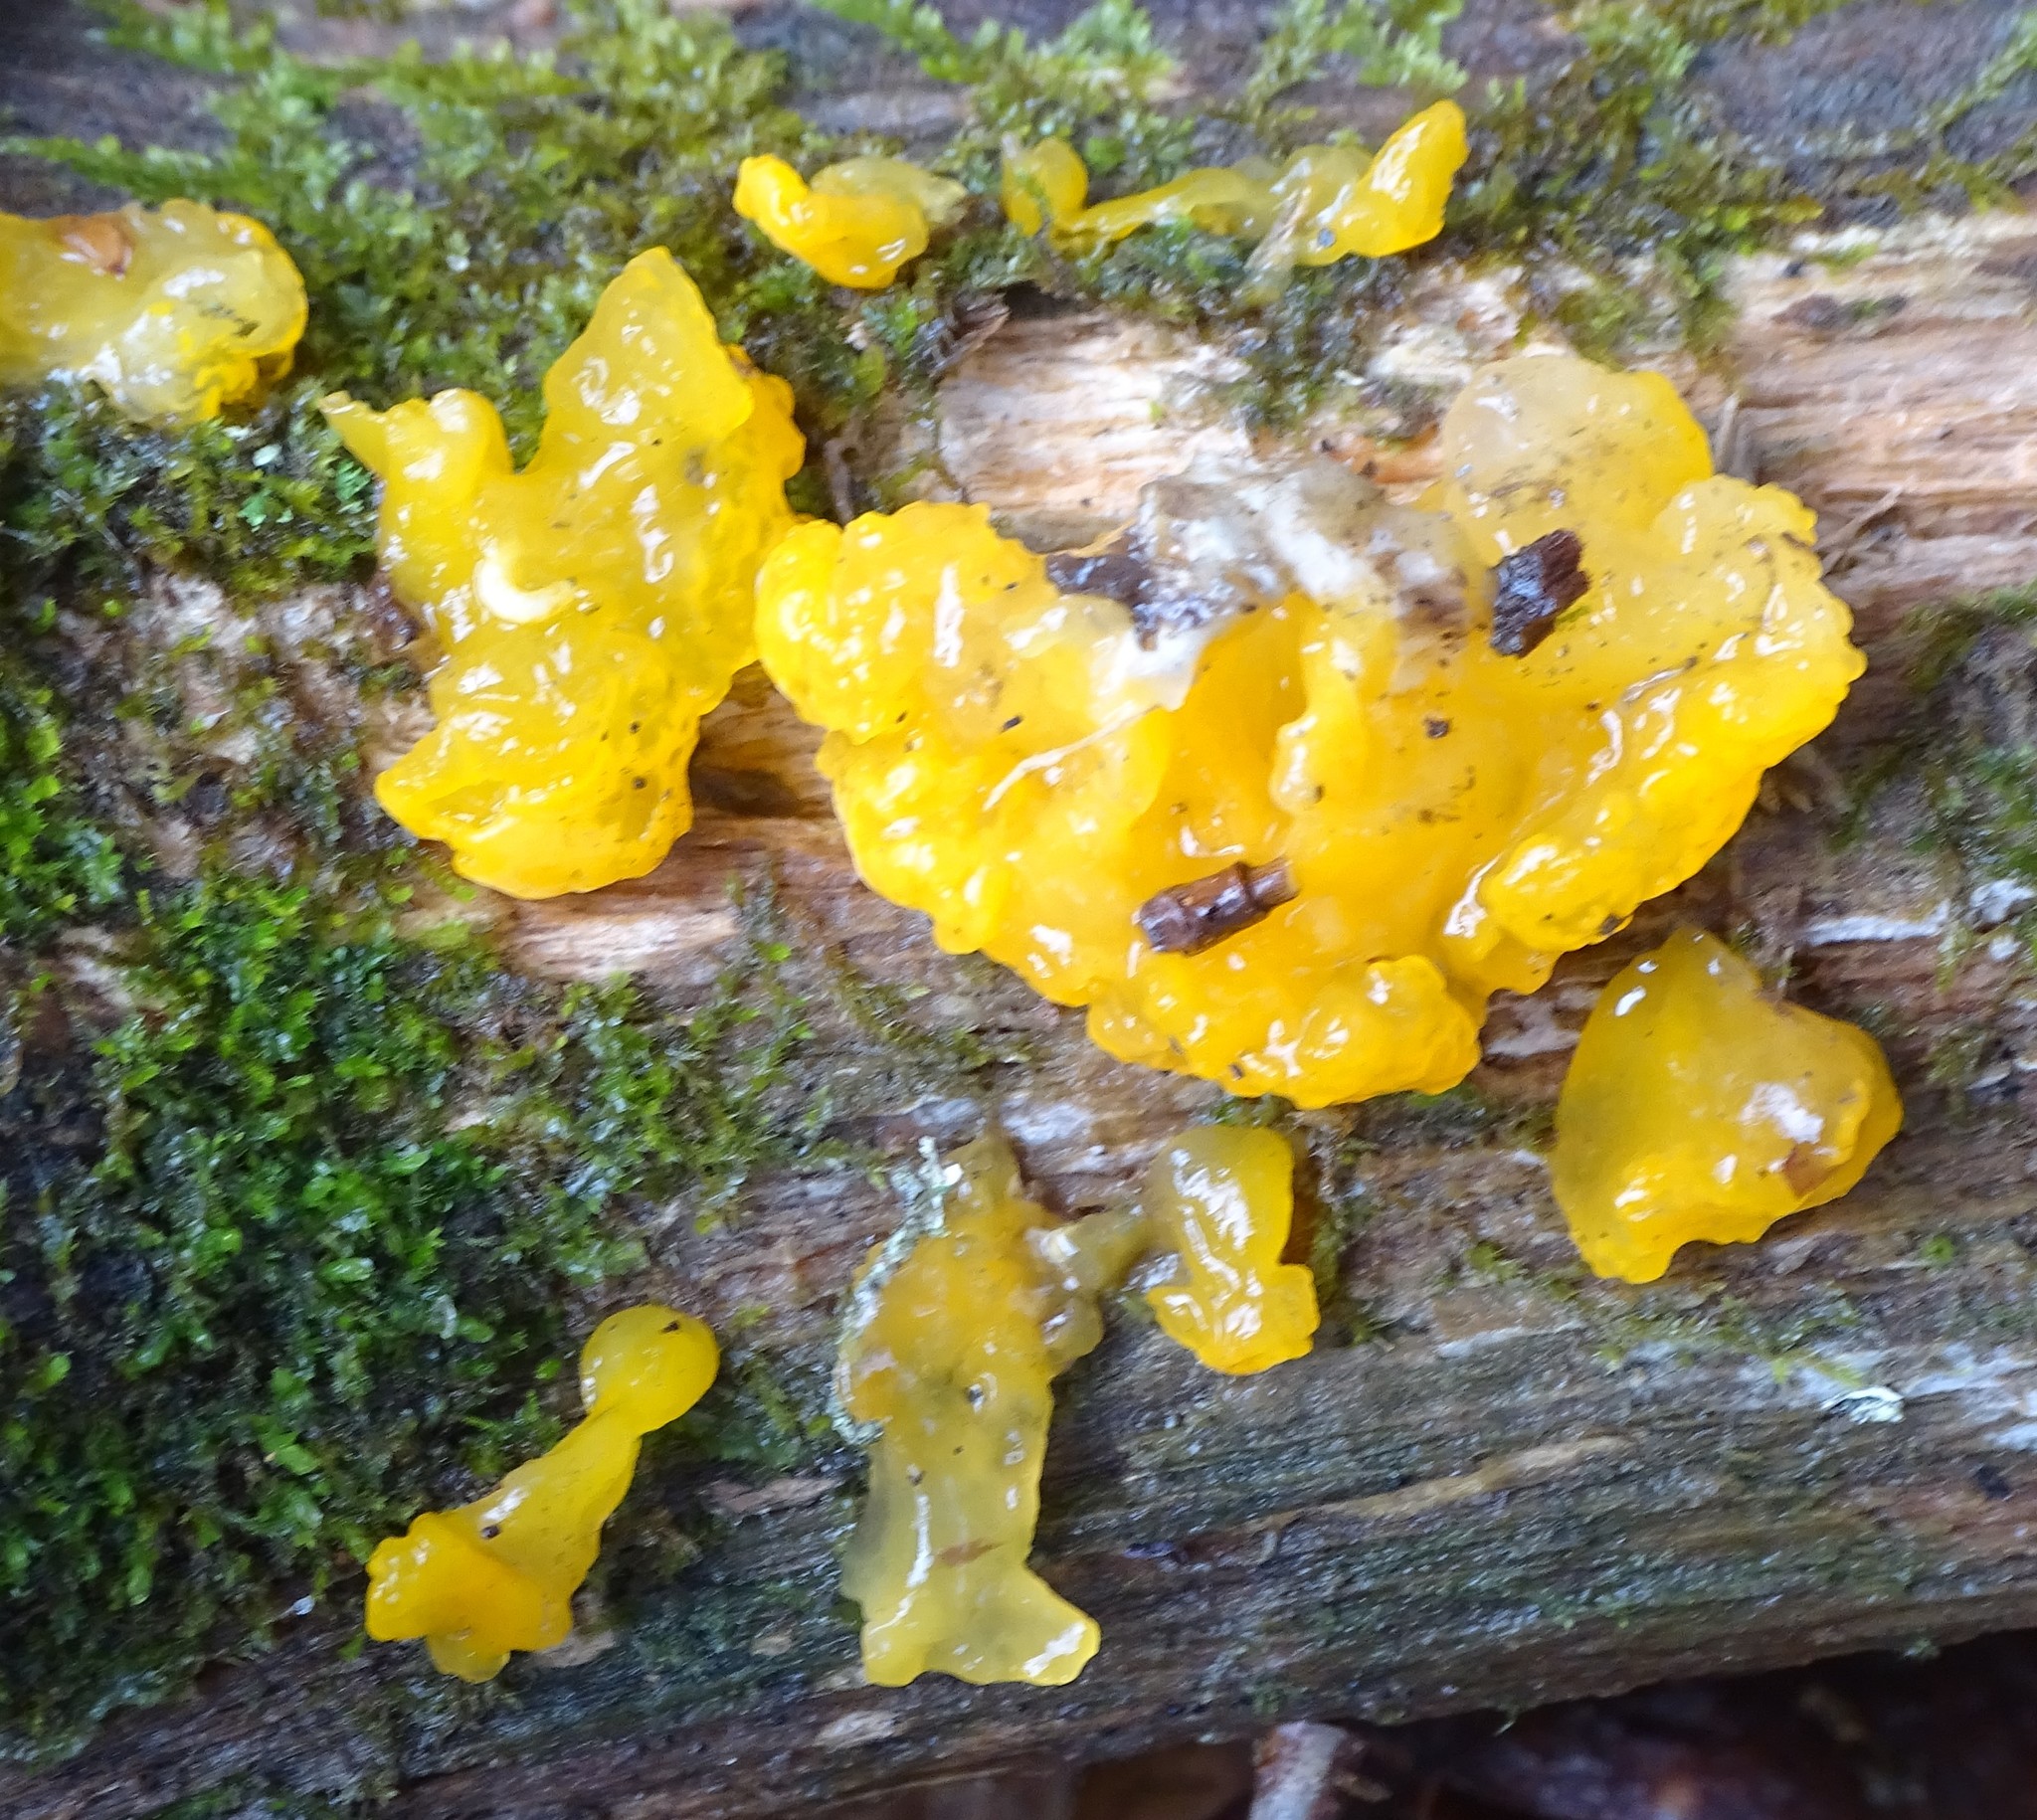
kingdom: Fungi
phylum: Basidiomycota
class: Dacrymycetes
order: Dacrymycetales
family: Dacrymycetaceae
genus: Dacrymyces
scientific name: Dacrymyces chrysospermus
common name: Orange jelly spot
